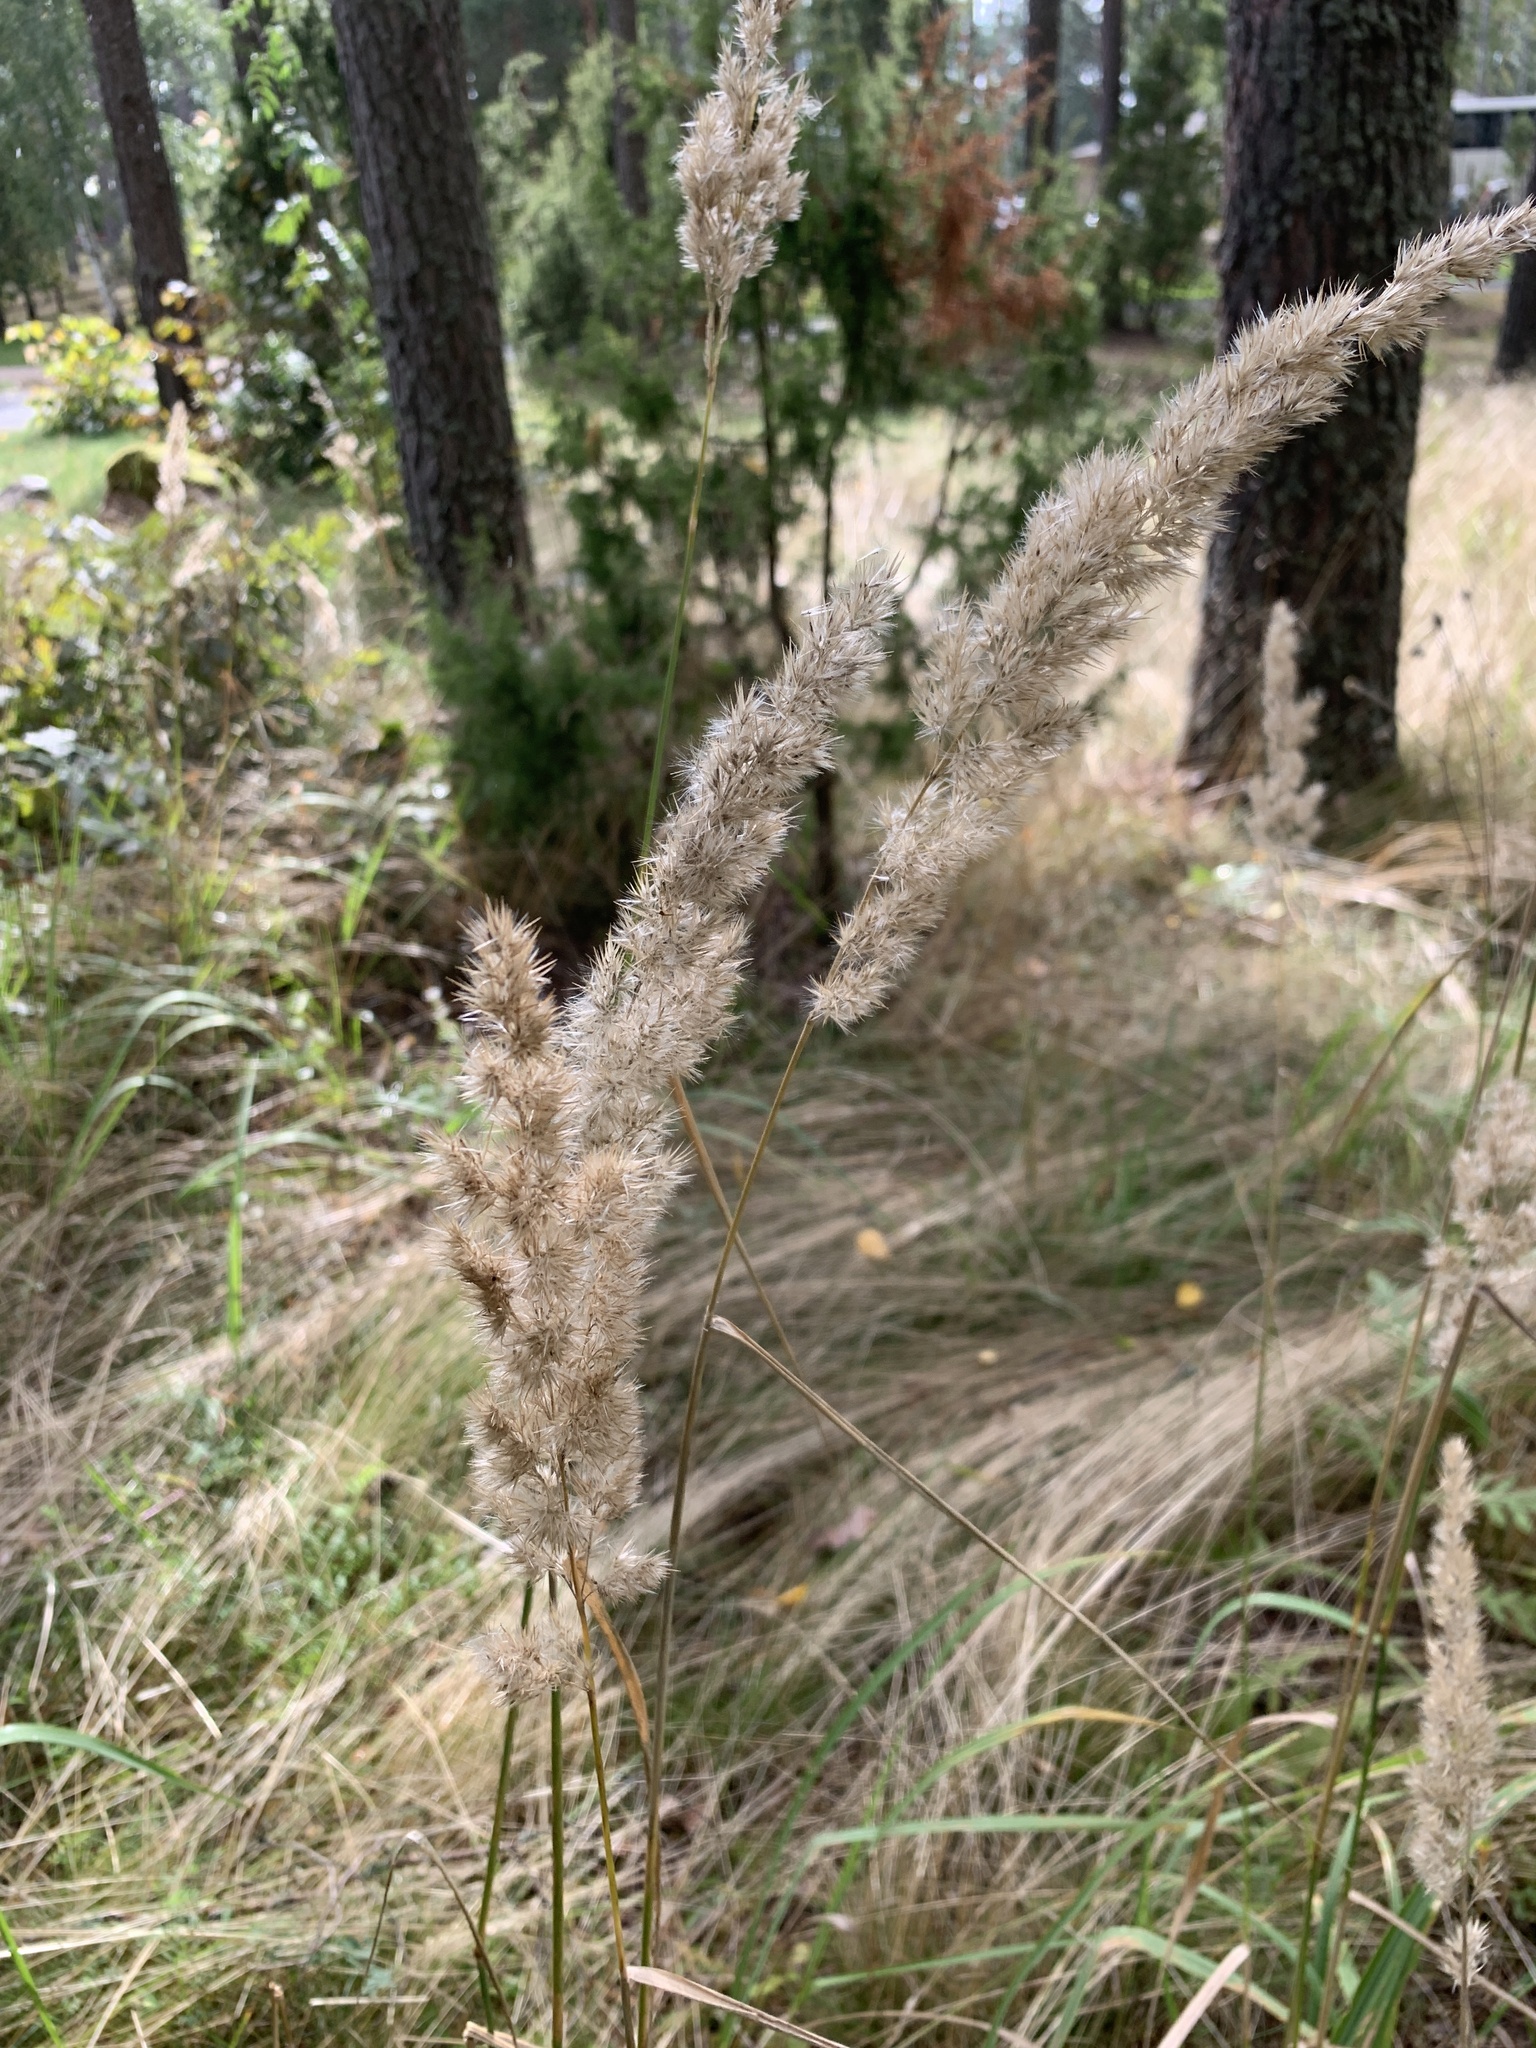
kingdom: Plantae
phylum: Tracheophyta
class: Liliopsida
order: Poales
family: Poaceae
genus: Calamagrostis
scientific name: Calamagrostis epigejos
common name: Wood small-reed
